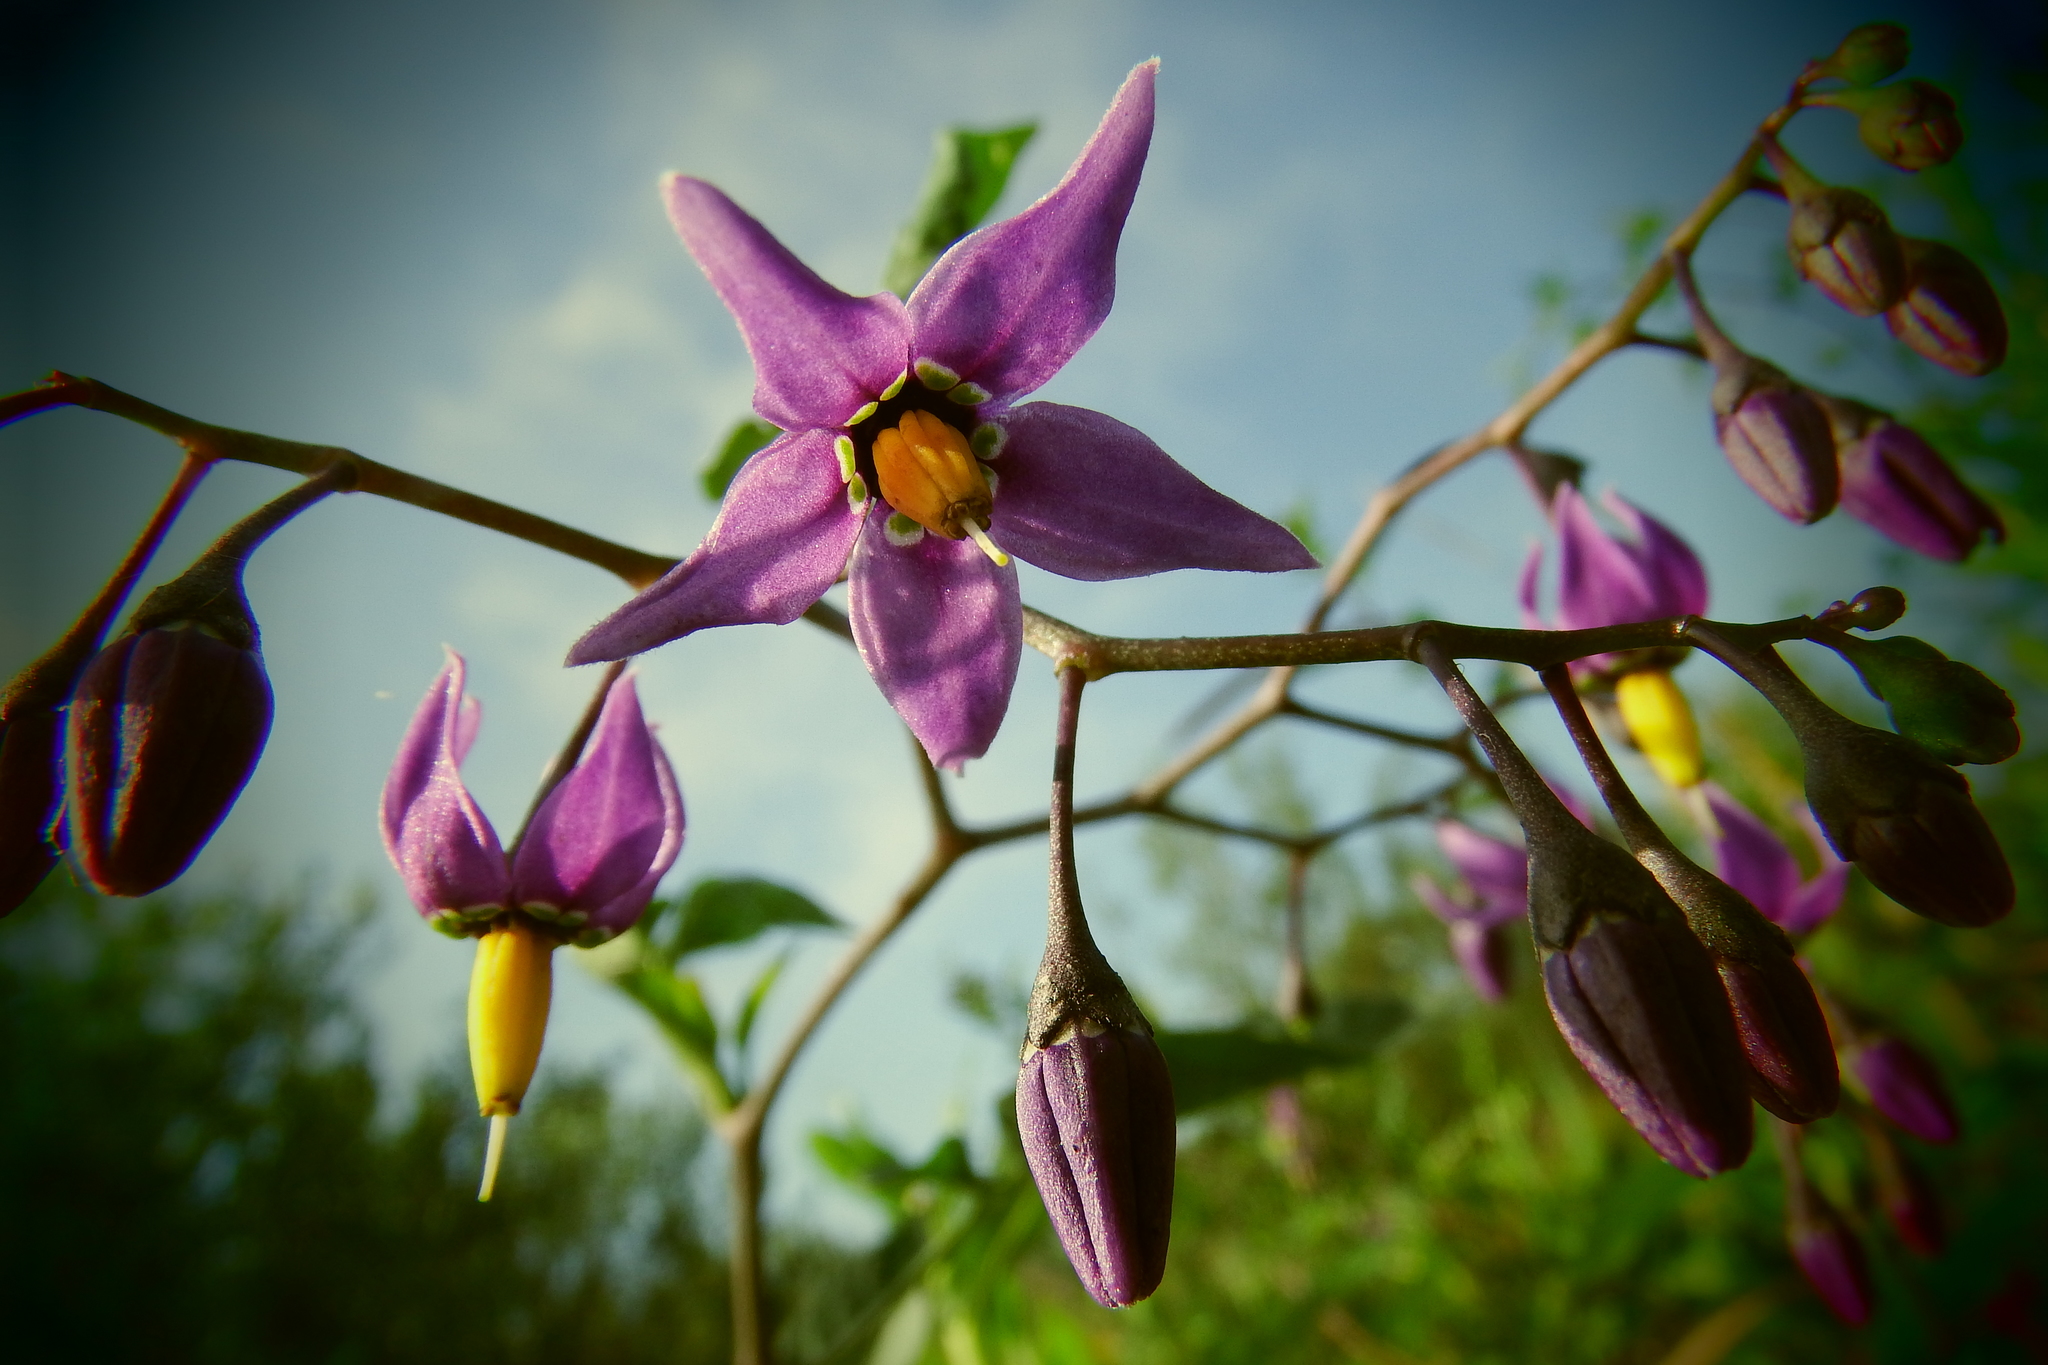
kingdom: Plantae
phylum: Tracheophyta
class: Magnoliopsida
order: Solanales
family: Solanaceae
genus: Solanum
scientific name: Solanum dulcamara
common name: Climbing nightshade
